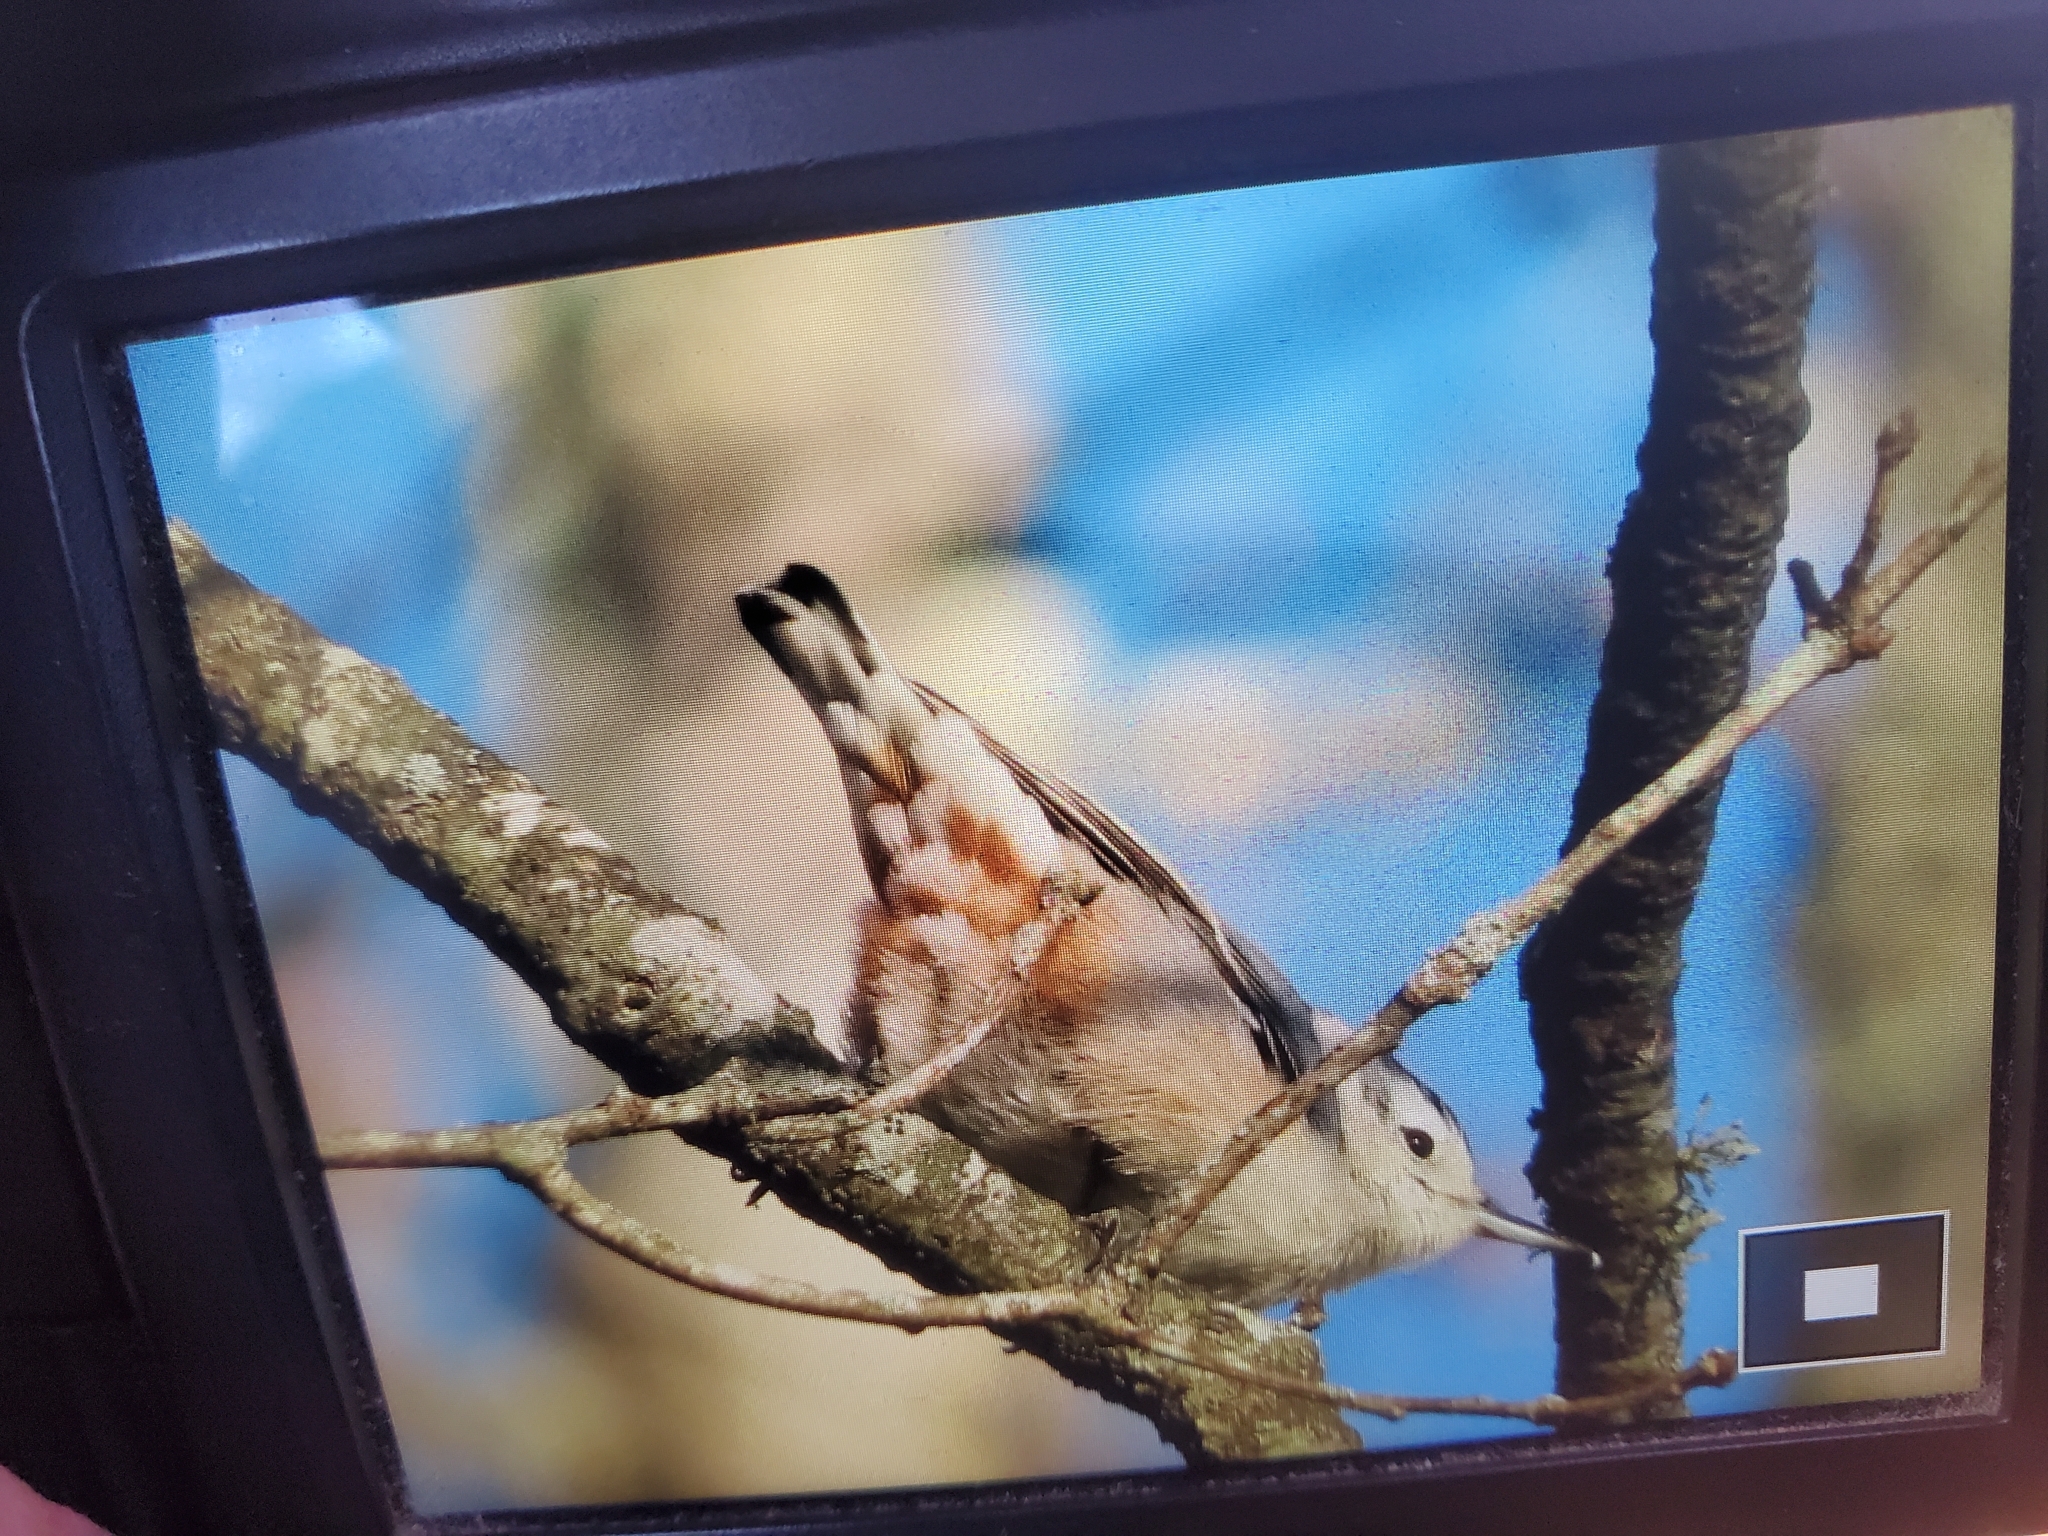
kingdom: Animalia
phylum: Chordata
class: Aves
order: Passeriformes
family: Sittidae
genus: Sitta
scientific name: Sitta carolinensis
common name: White-breasted nuthatch
